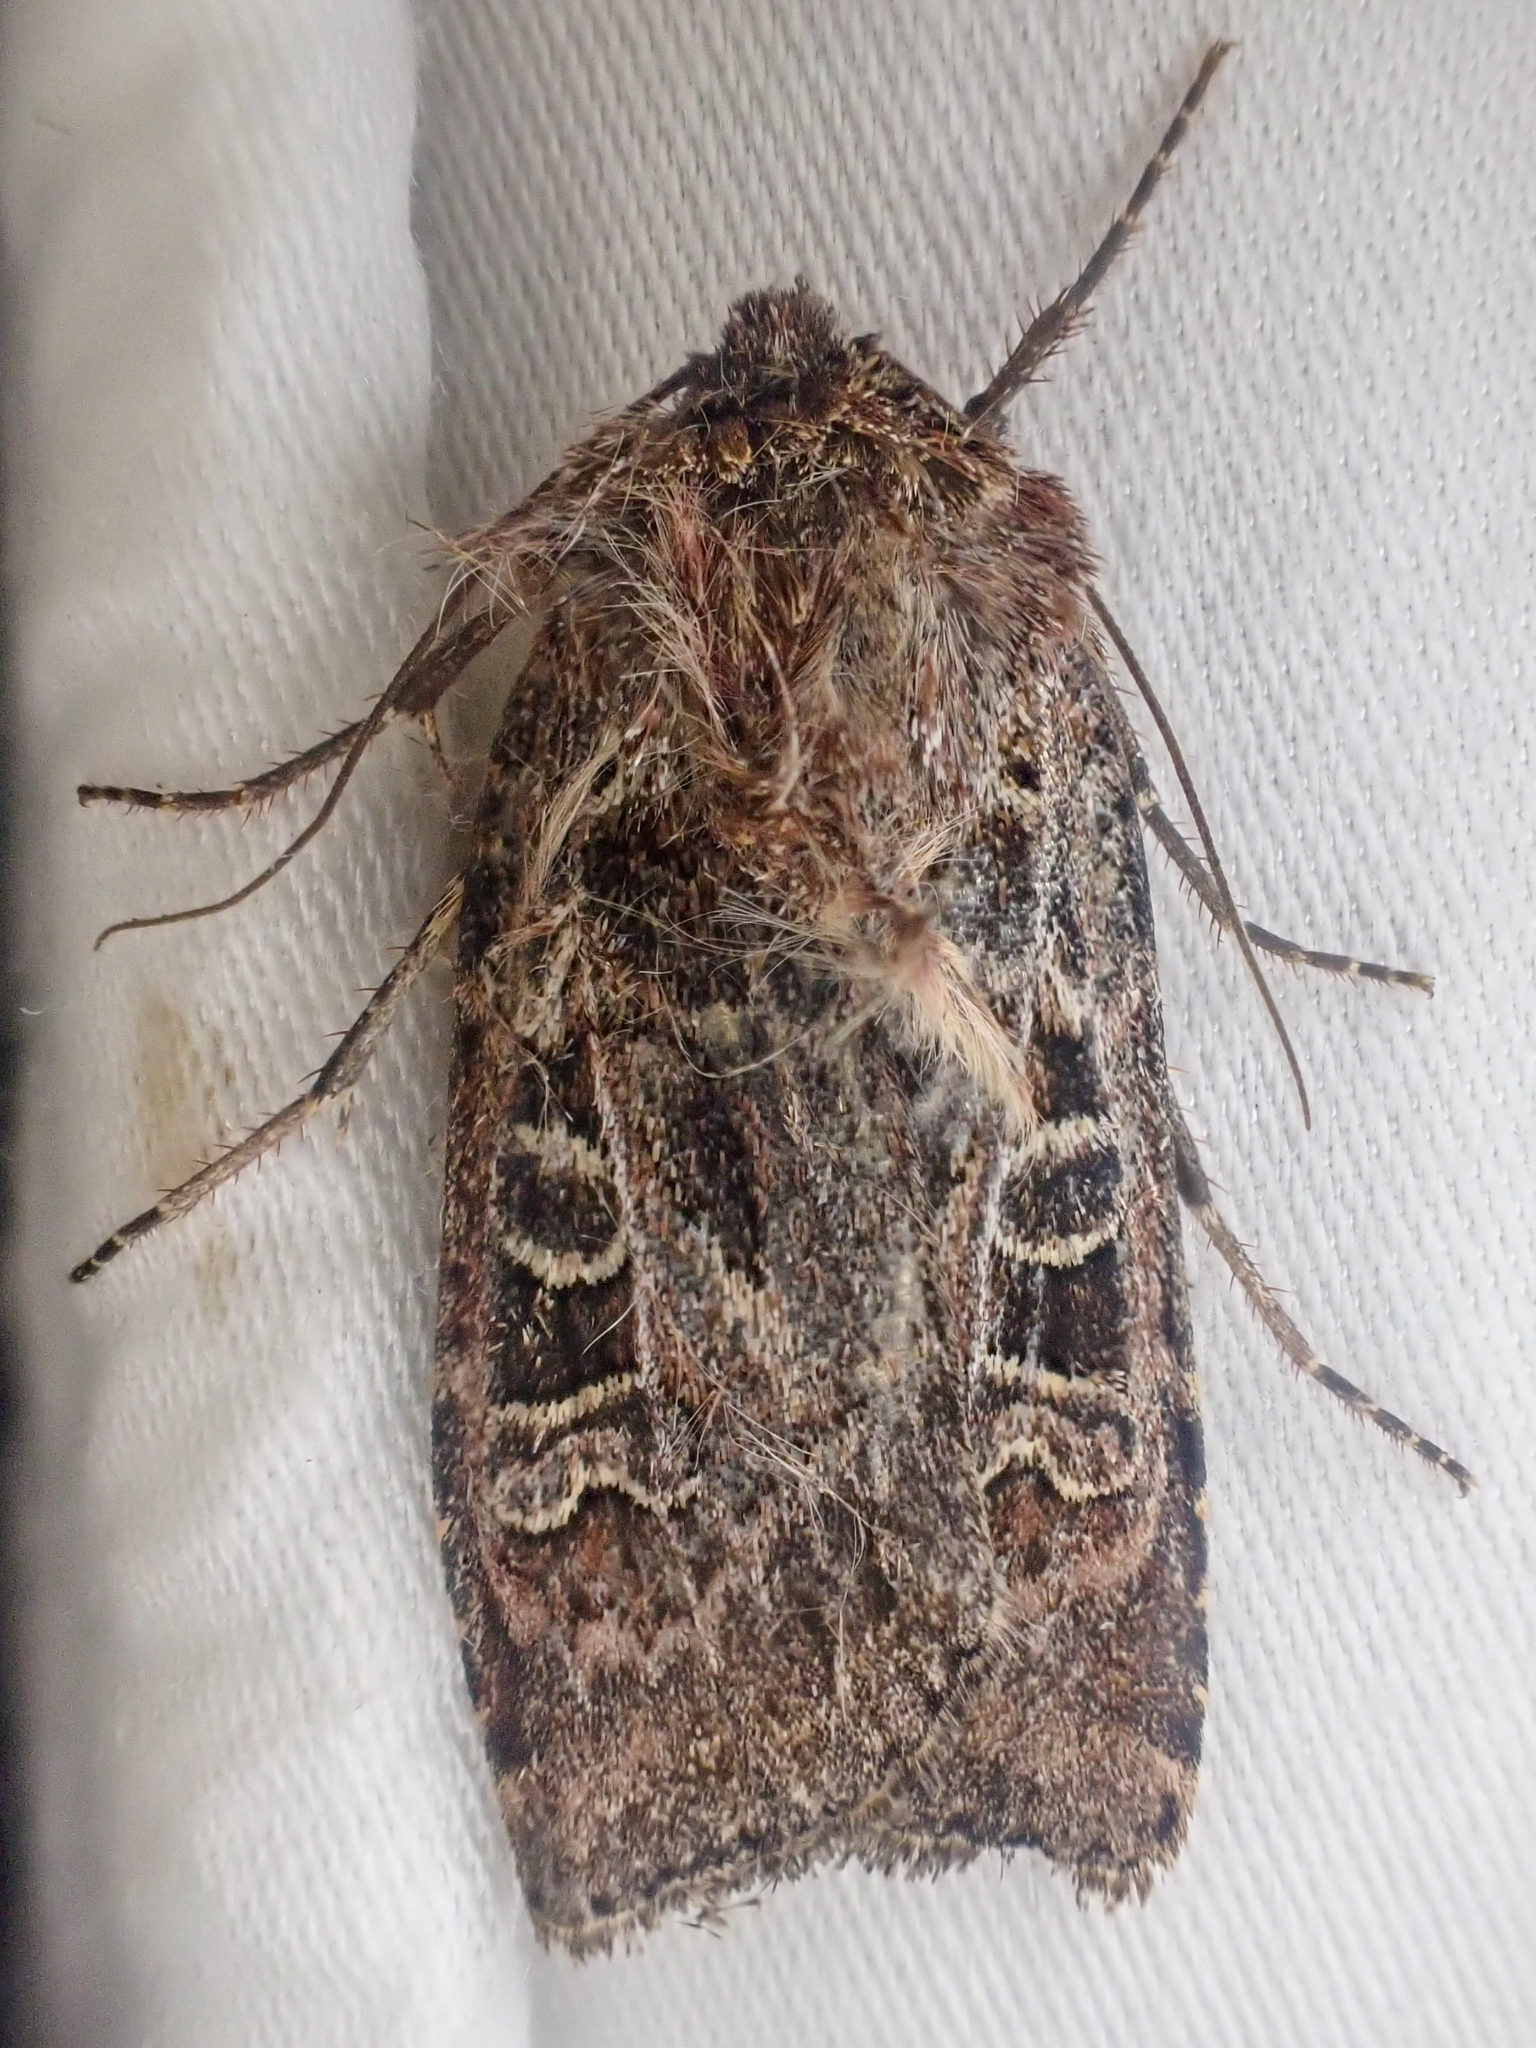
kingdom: Animalia
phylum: Arthropoda
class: Insecta
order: Lepidoptera
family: Noctuidae
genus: Euxoa
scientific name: Euxoa rufula
